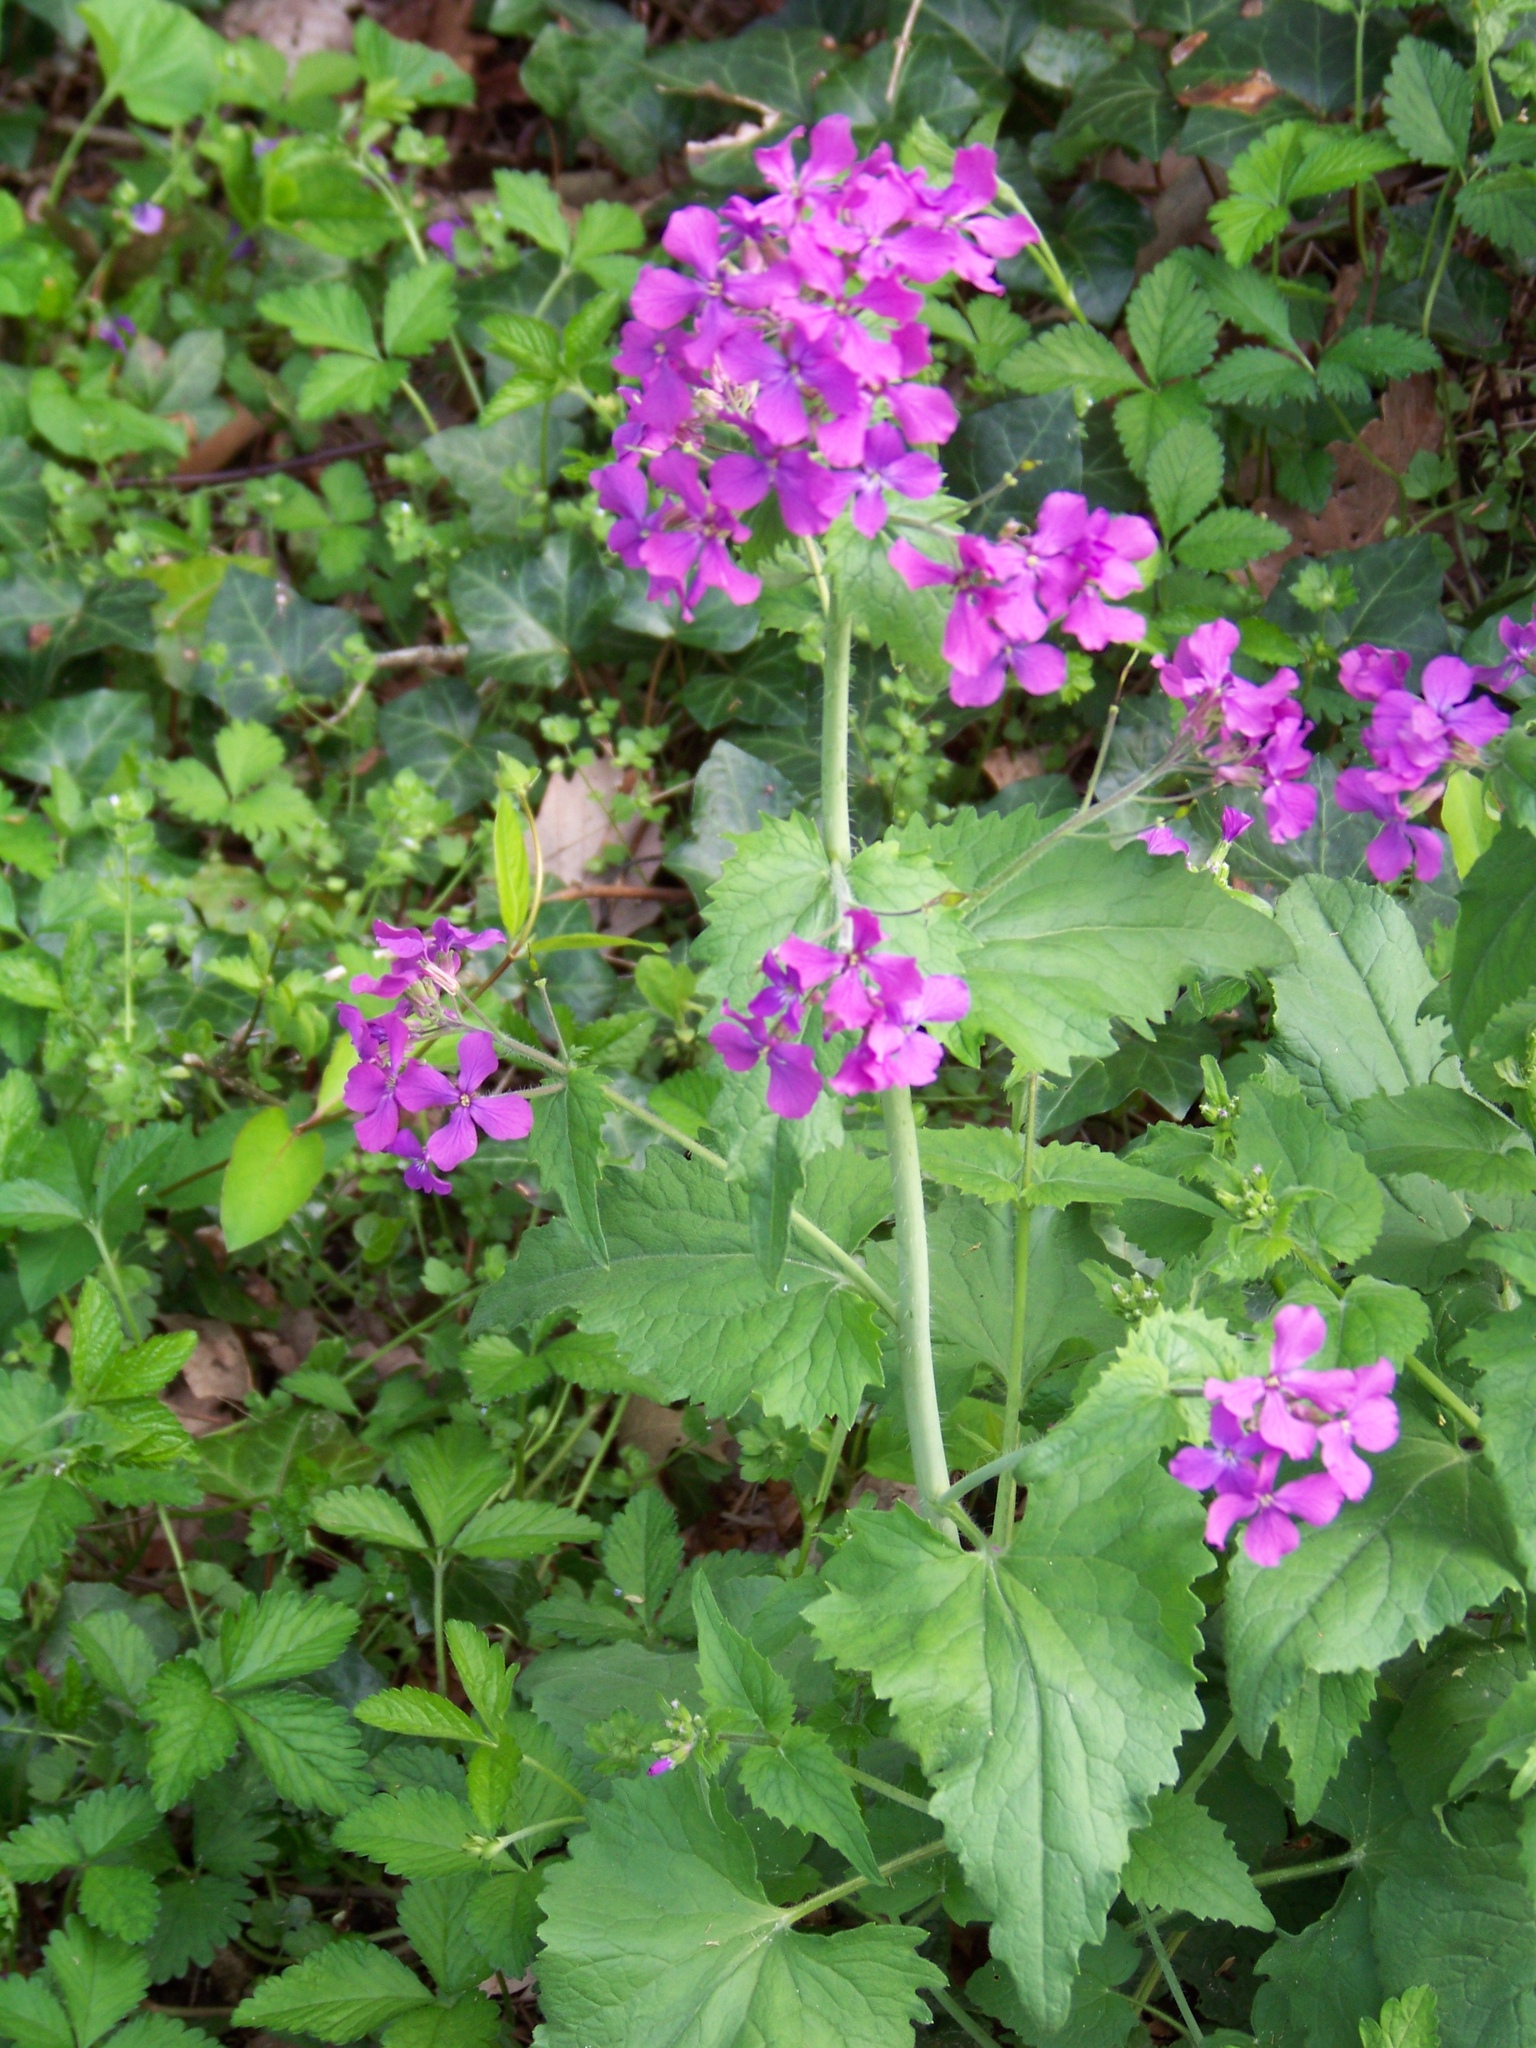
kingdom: Plantae
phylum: Tracheophyta
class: Magnoliopsida
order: Brassicales
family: Brassicaceae
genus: Lunaria
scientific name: Lunaria annua
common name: Honesty
